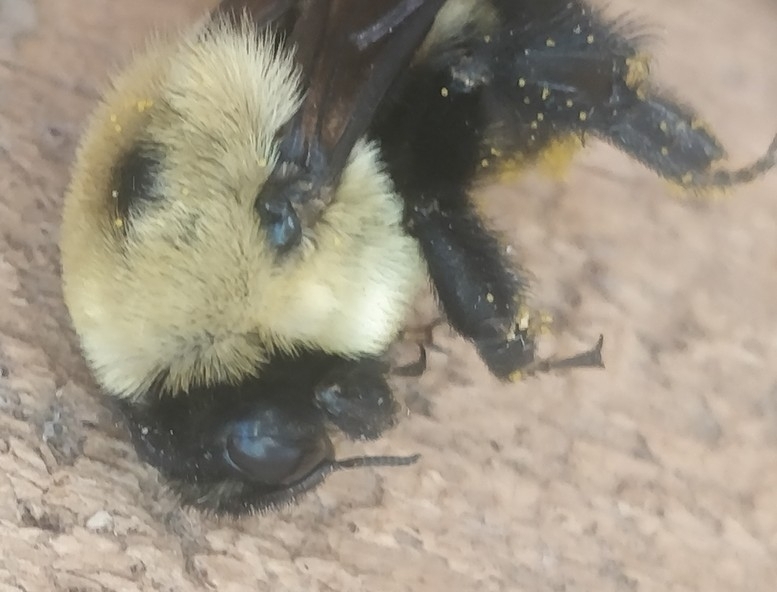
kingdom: Animalia
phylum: Arthropoda
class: Insecta
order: Hymenoptera
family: Apidae
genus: Bombus
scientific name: Bombus griseocollis
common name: Brown-belted bumble bee
